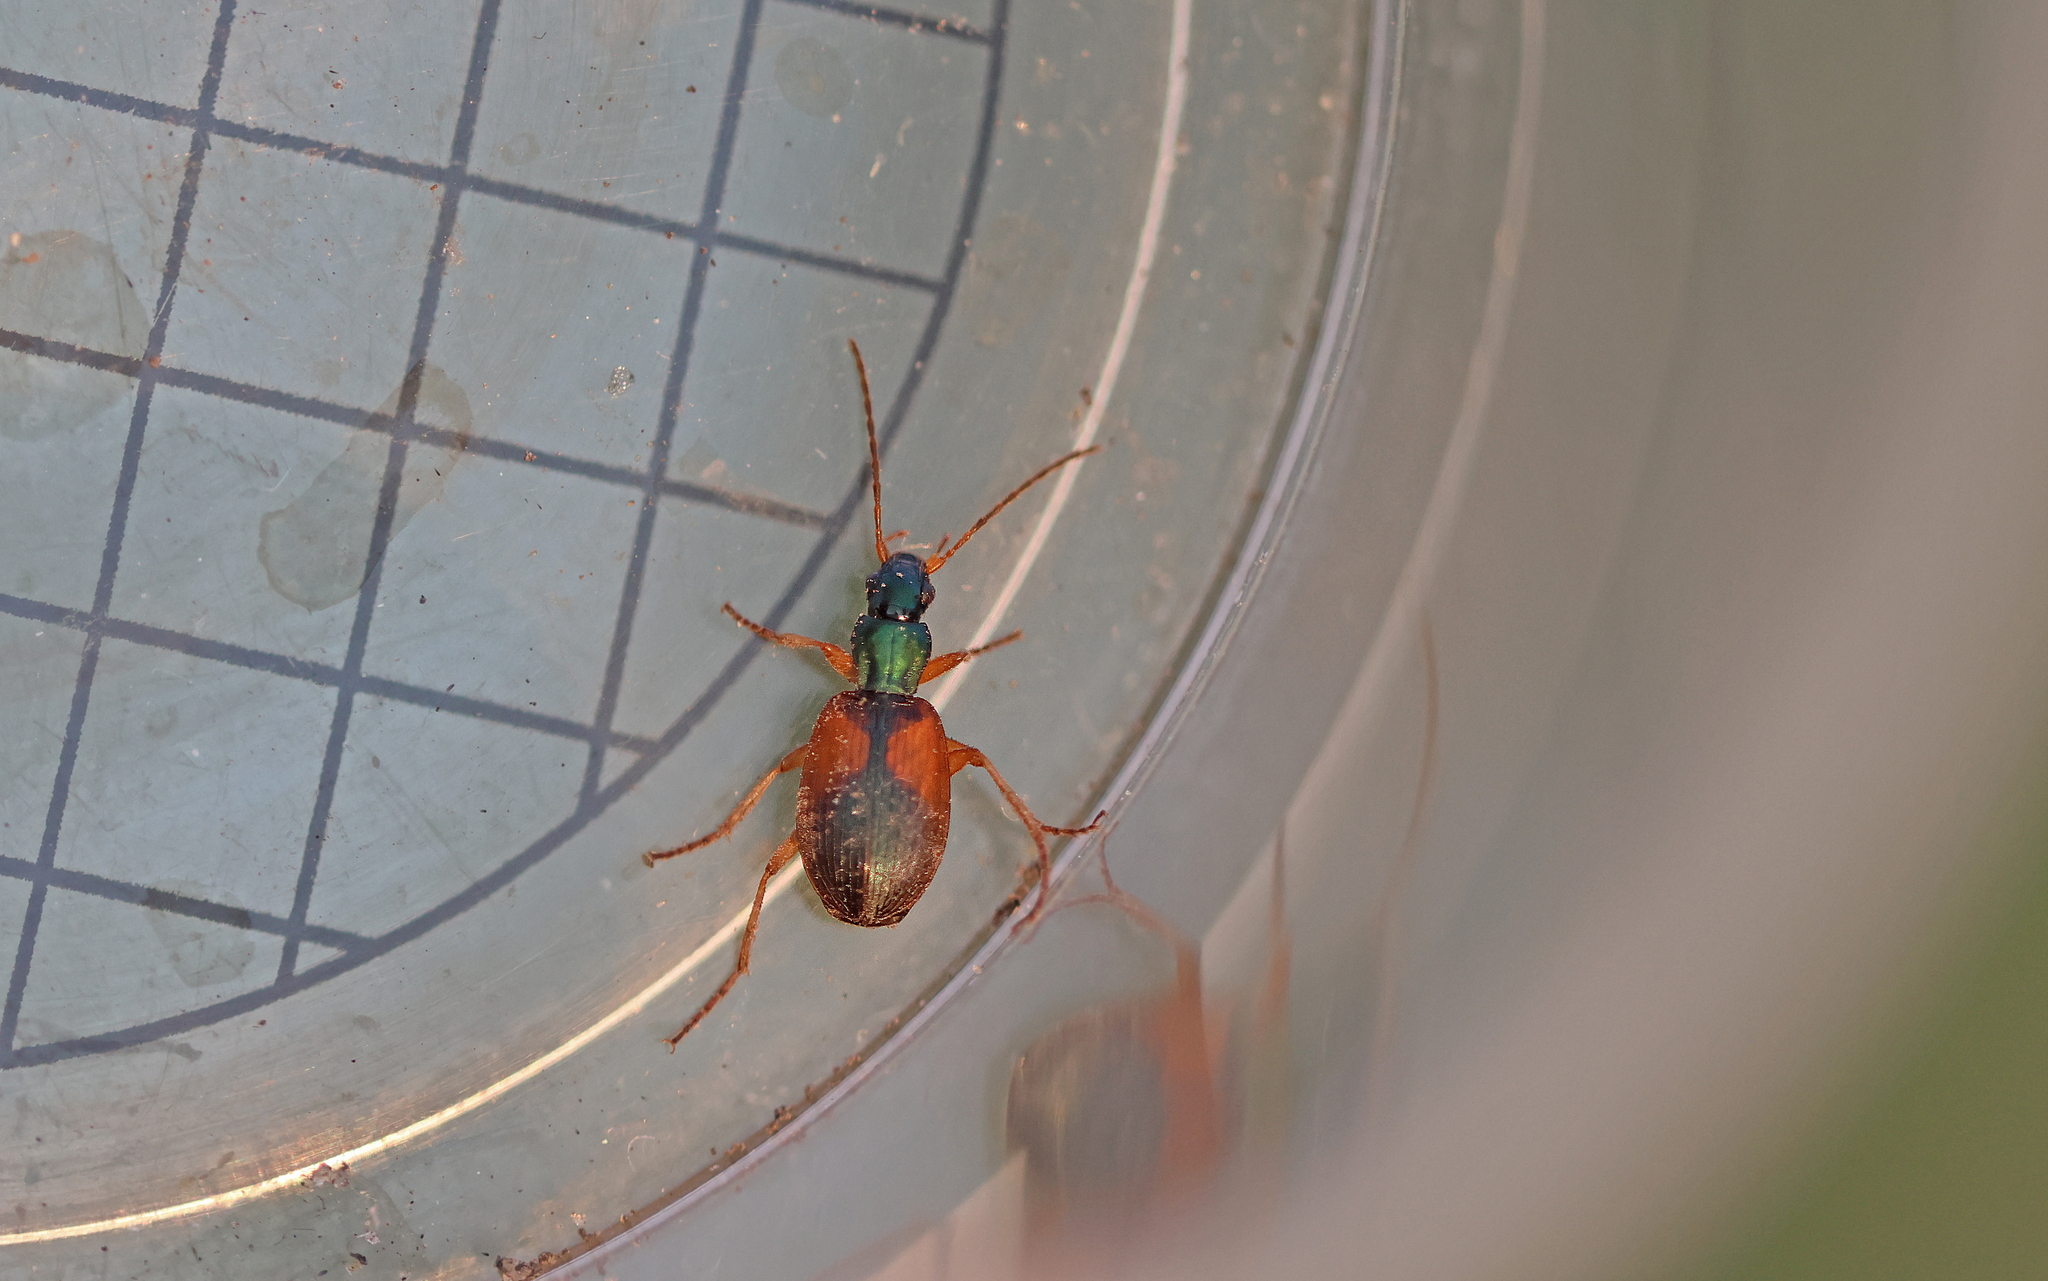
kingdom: Animalia
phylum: Arthropoda
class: Insecta
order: Coleoptera
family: Carabidae
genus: Anchomenus
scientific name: Anchomenus dorsalis
